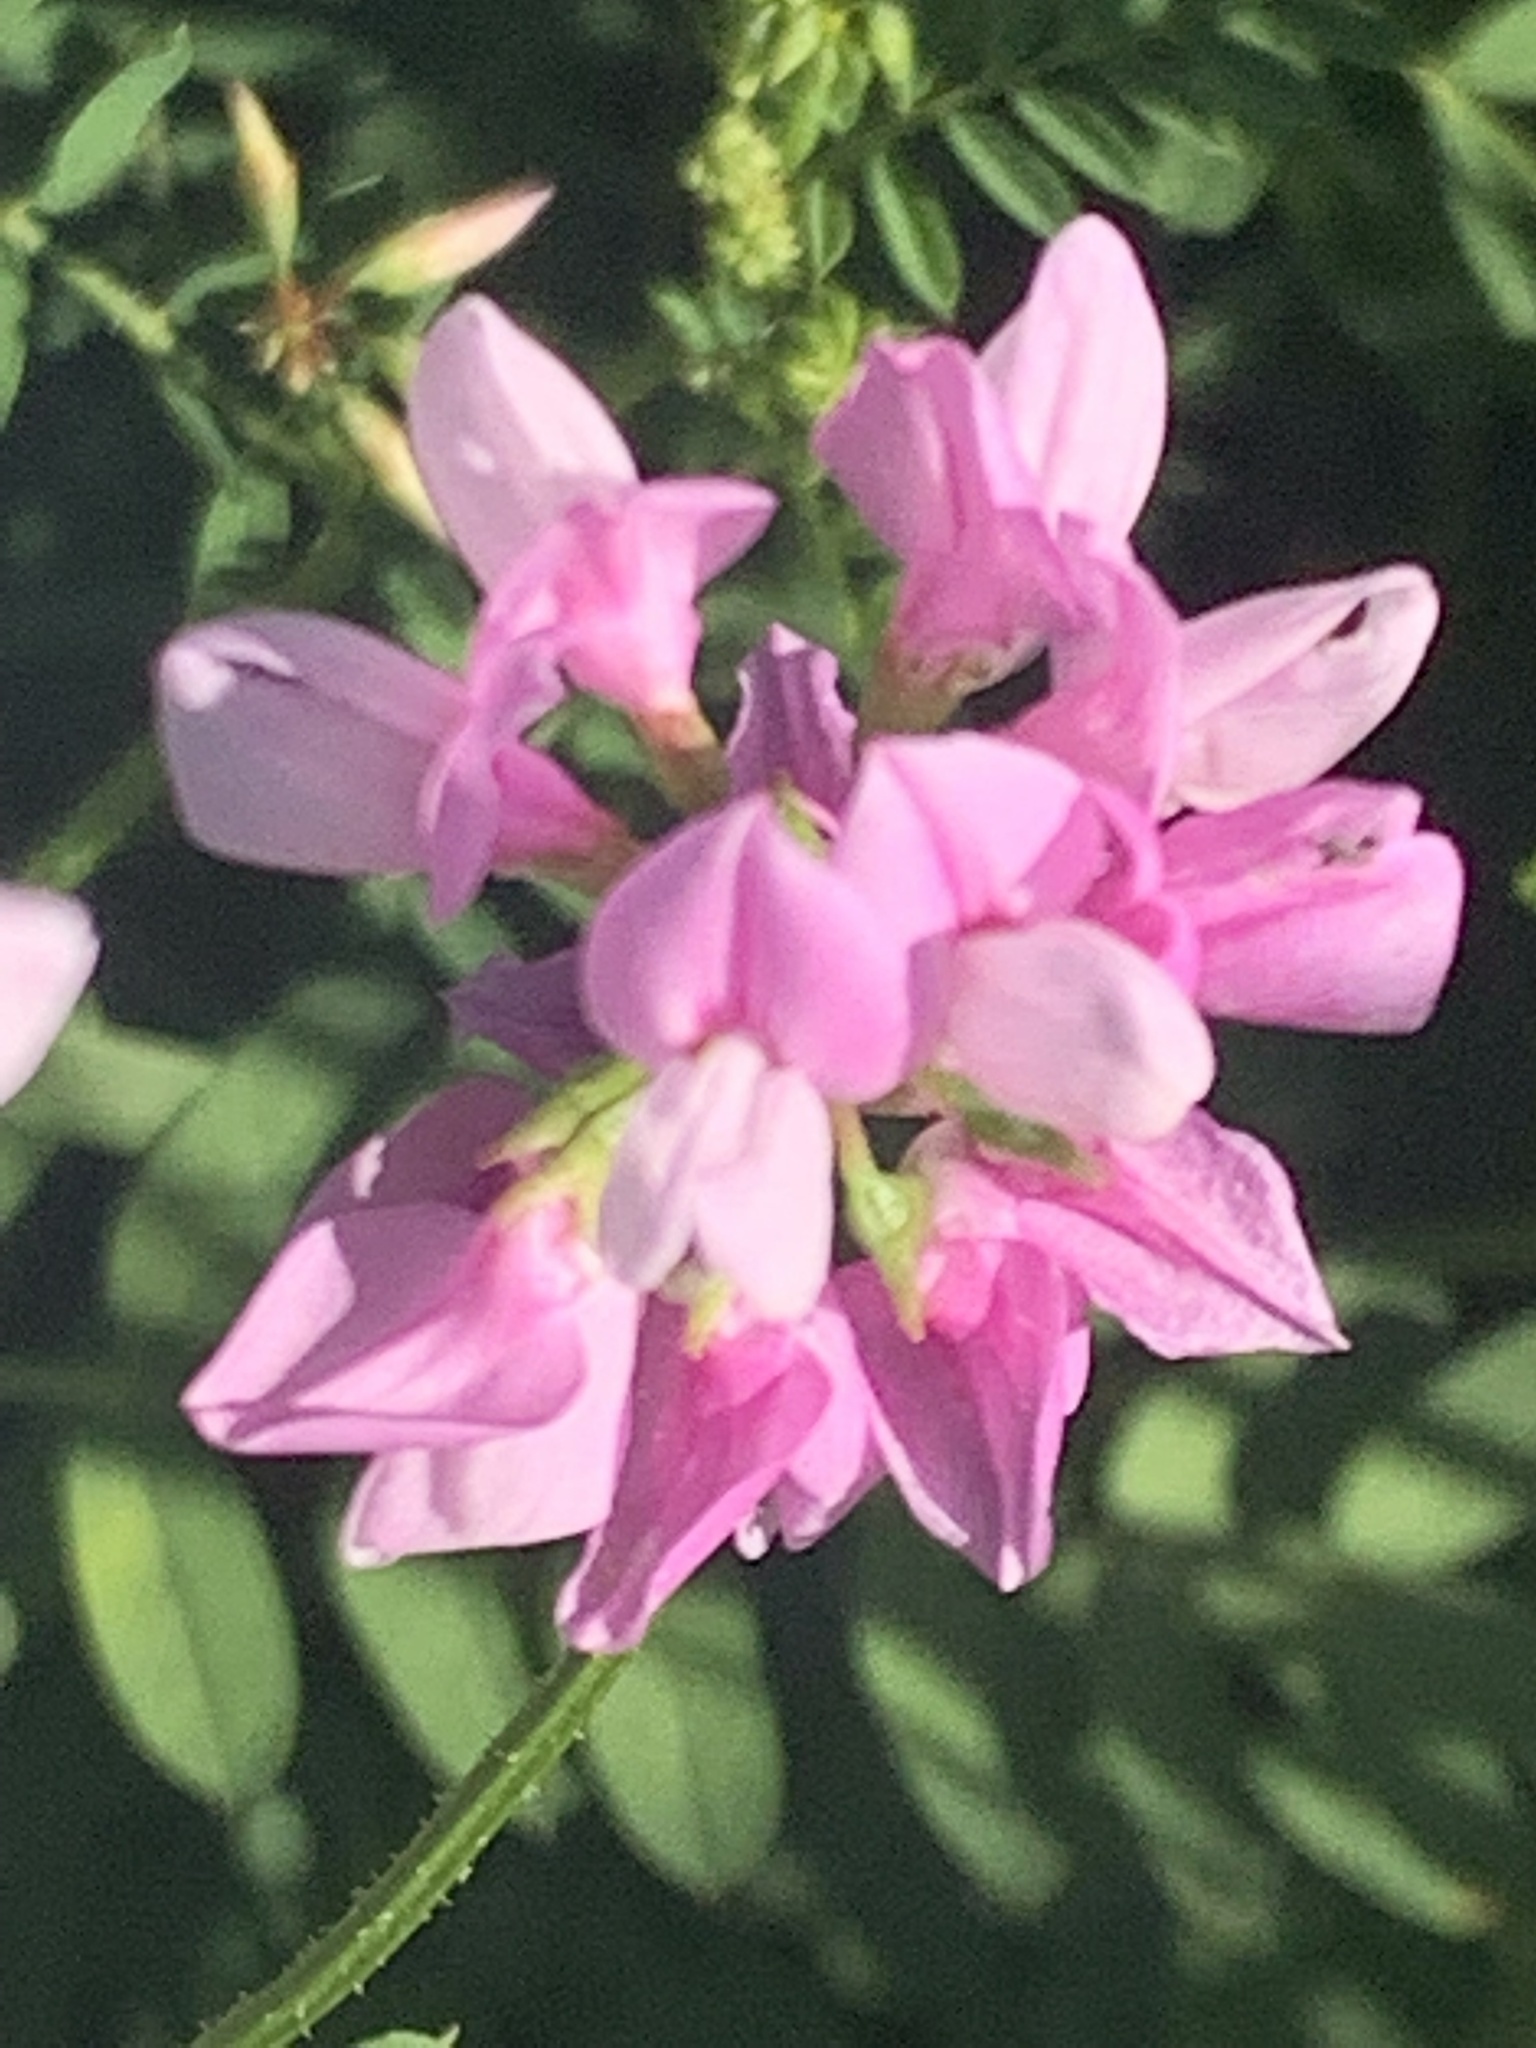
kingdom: Plantae
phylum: Tracheophyta
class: Magnoliopsida
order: Fabales
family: Fabaceae
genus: Coronilla
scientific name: Coronilla varia
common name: Crownvetch
